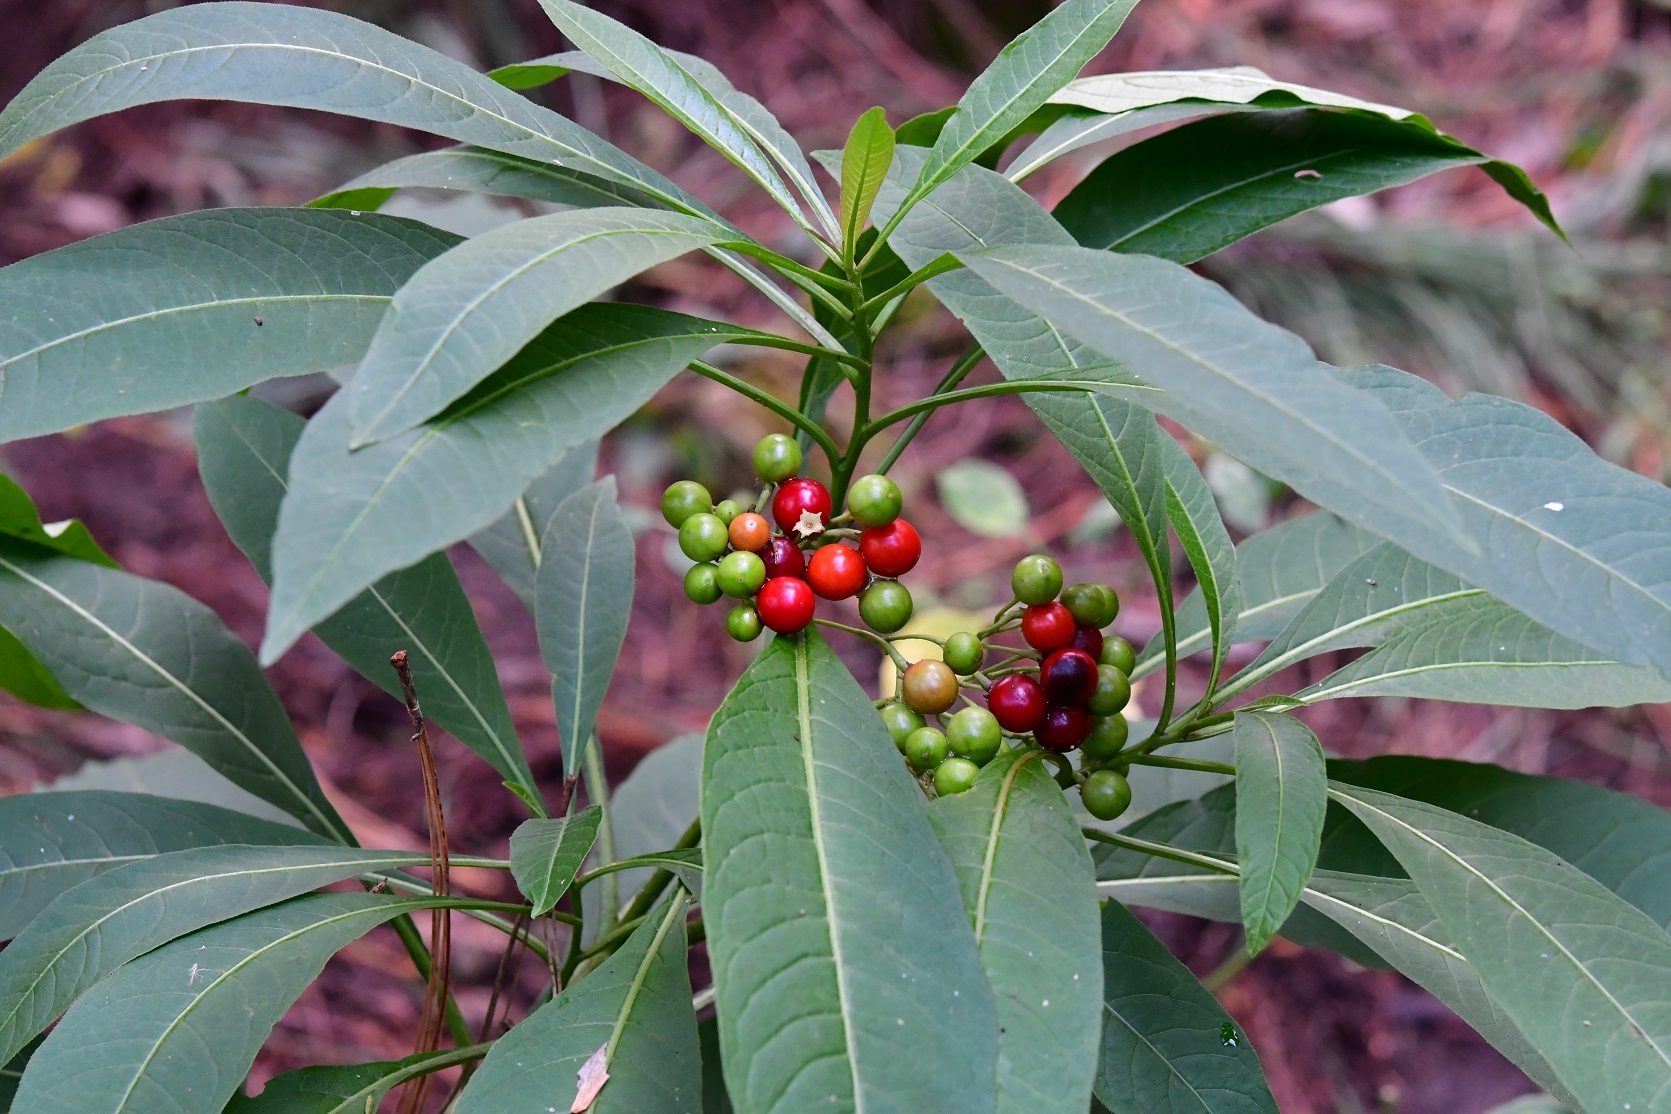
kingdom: Plantae
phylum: Tracheophyta
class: Magnoliopsida
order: Solanales
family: Solanaceae
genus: Solanum
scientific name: Solanum pubigerum
